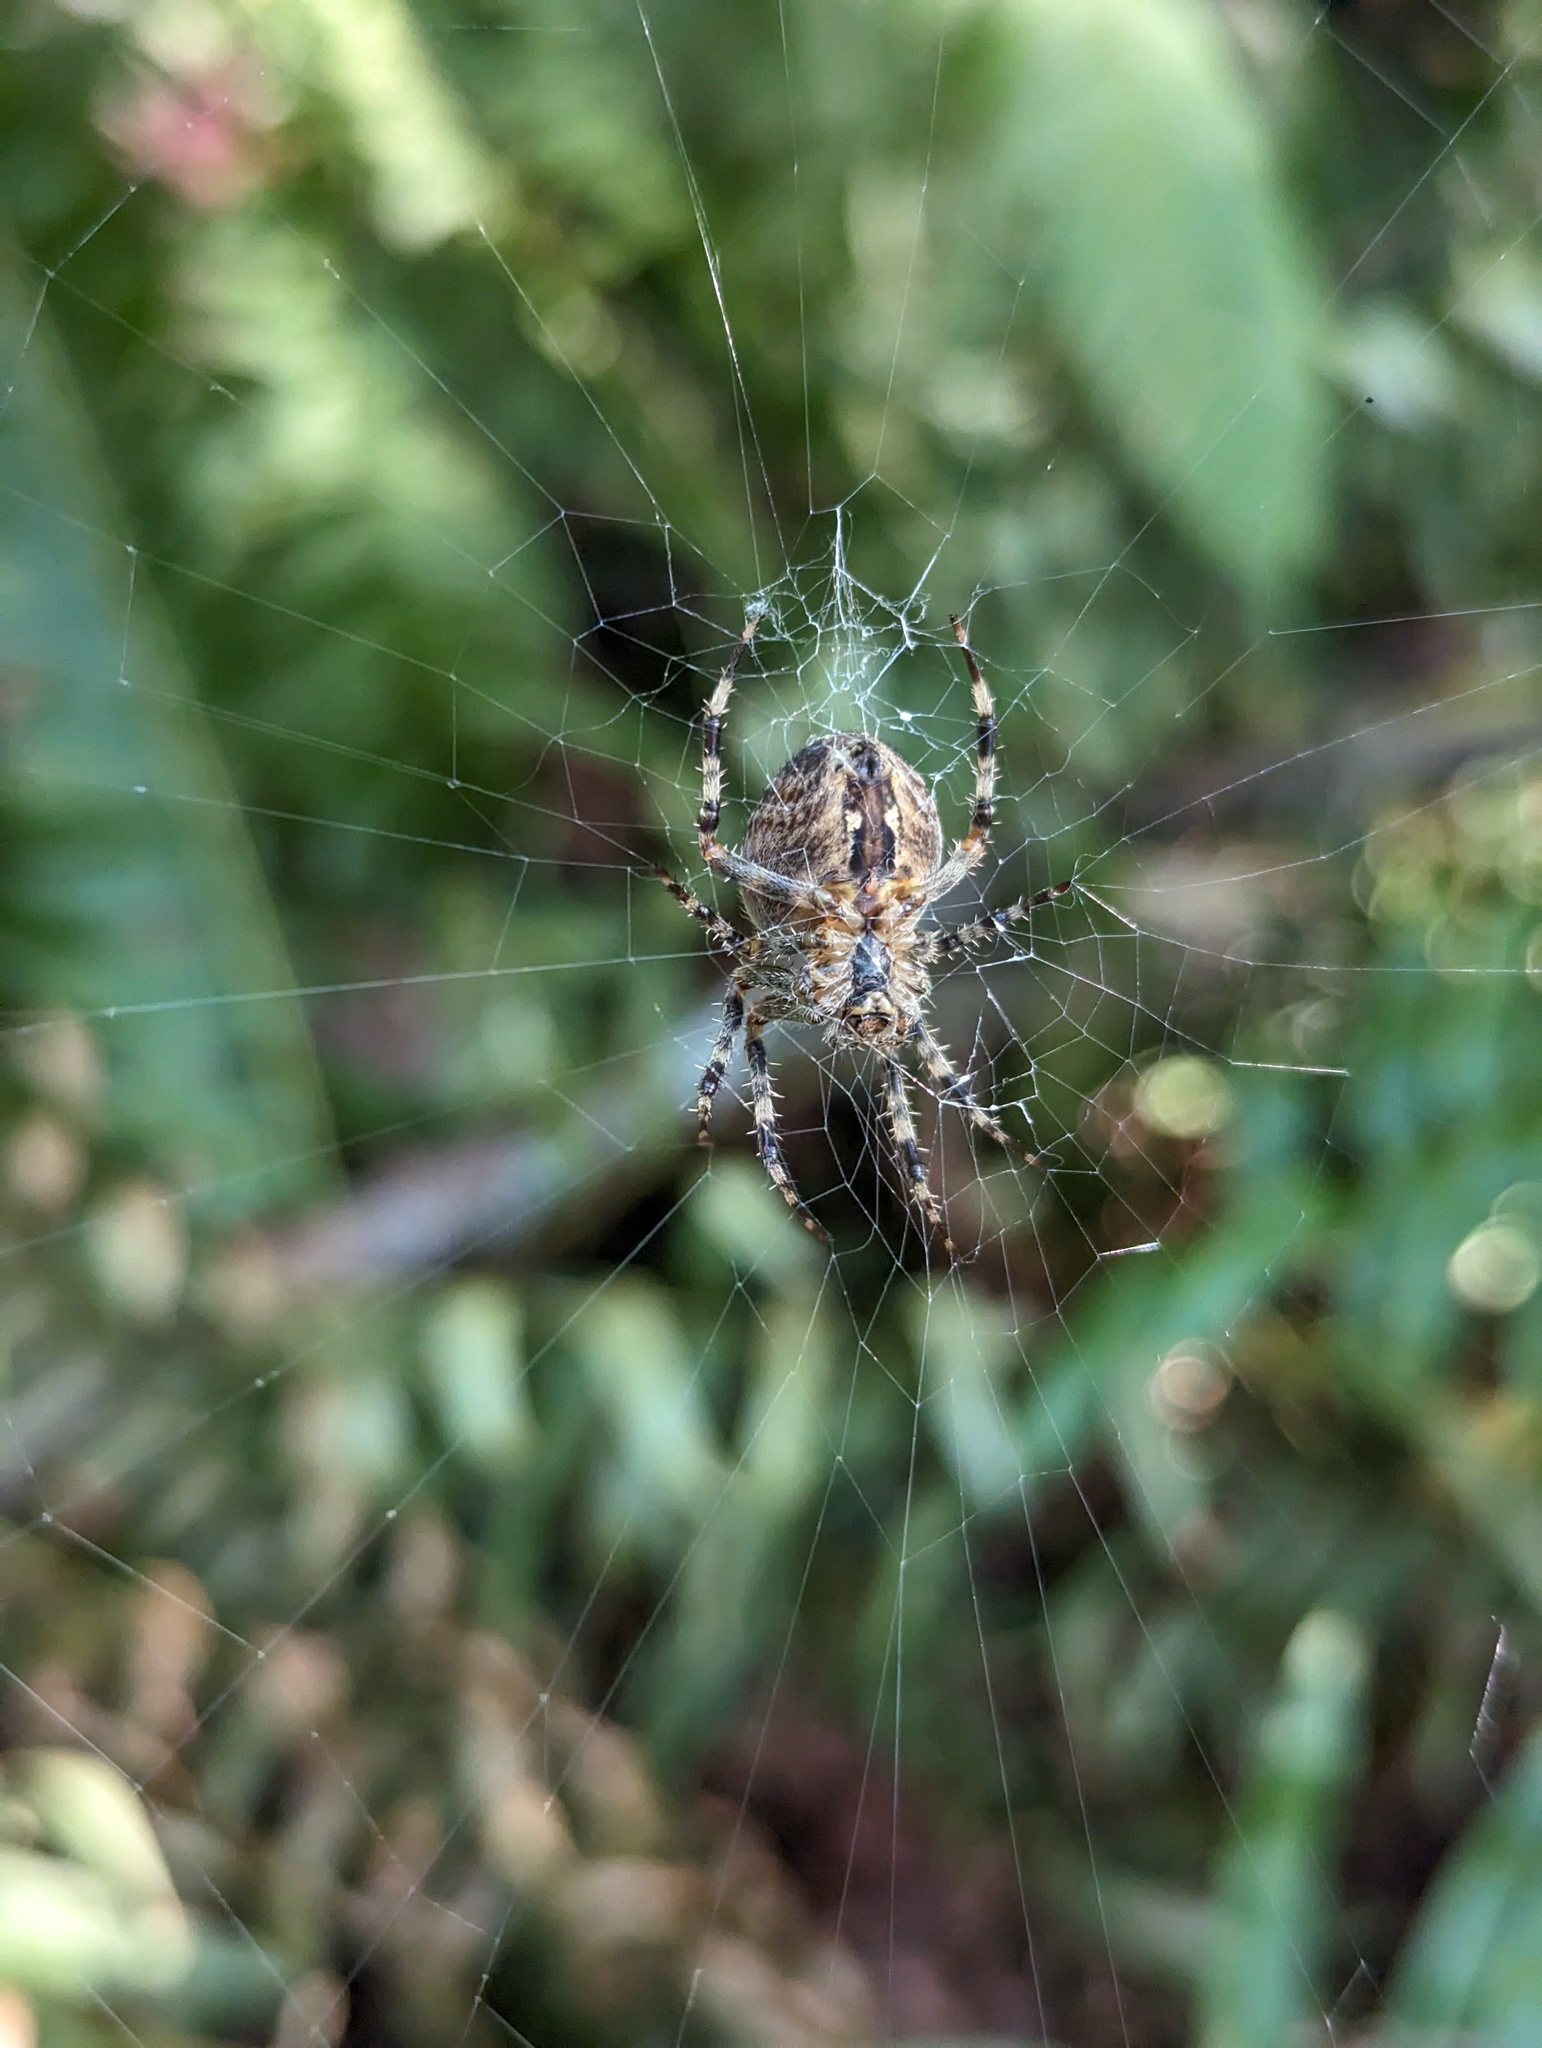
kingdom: Animalia
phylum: Arthropoda
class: Arachnida
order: Araneae
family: Araneidae
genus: Araneus
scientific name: Araneus diadematus
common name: Cross orbweaver
